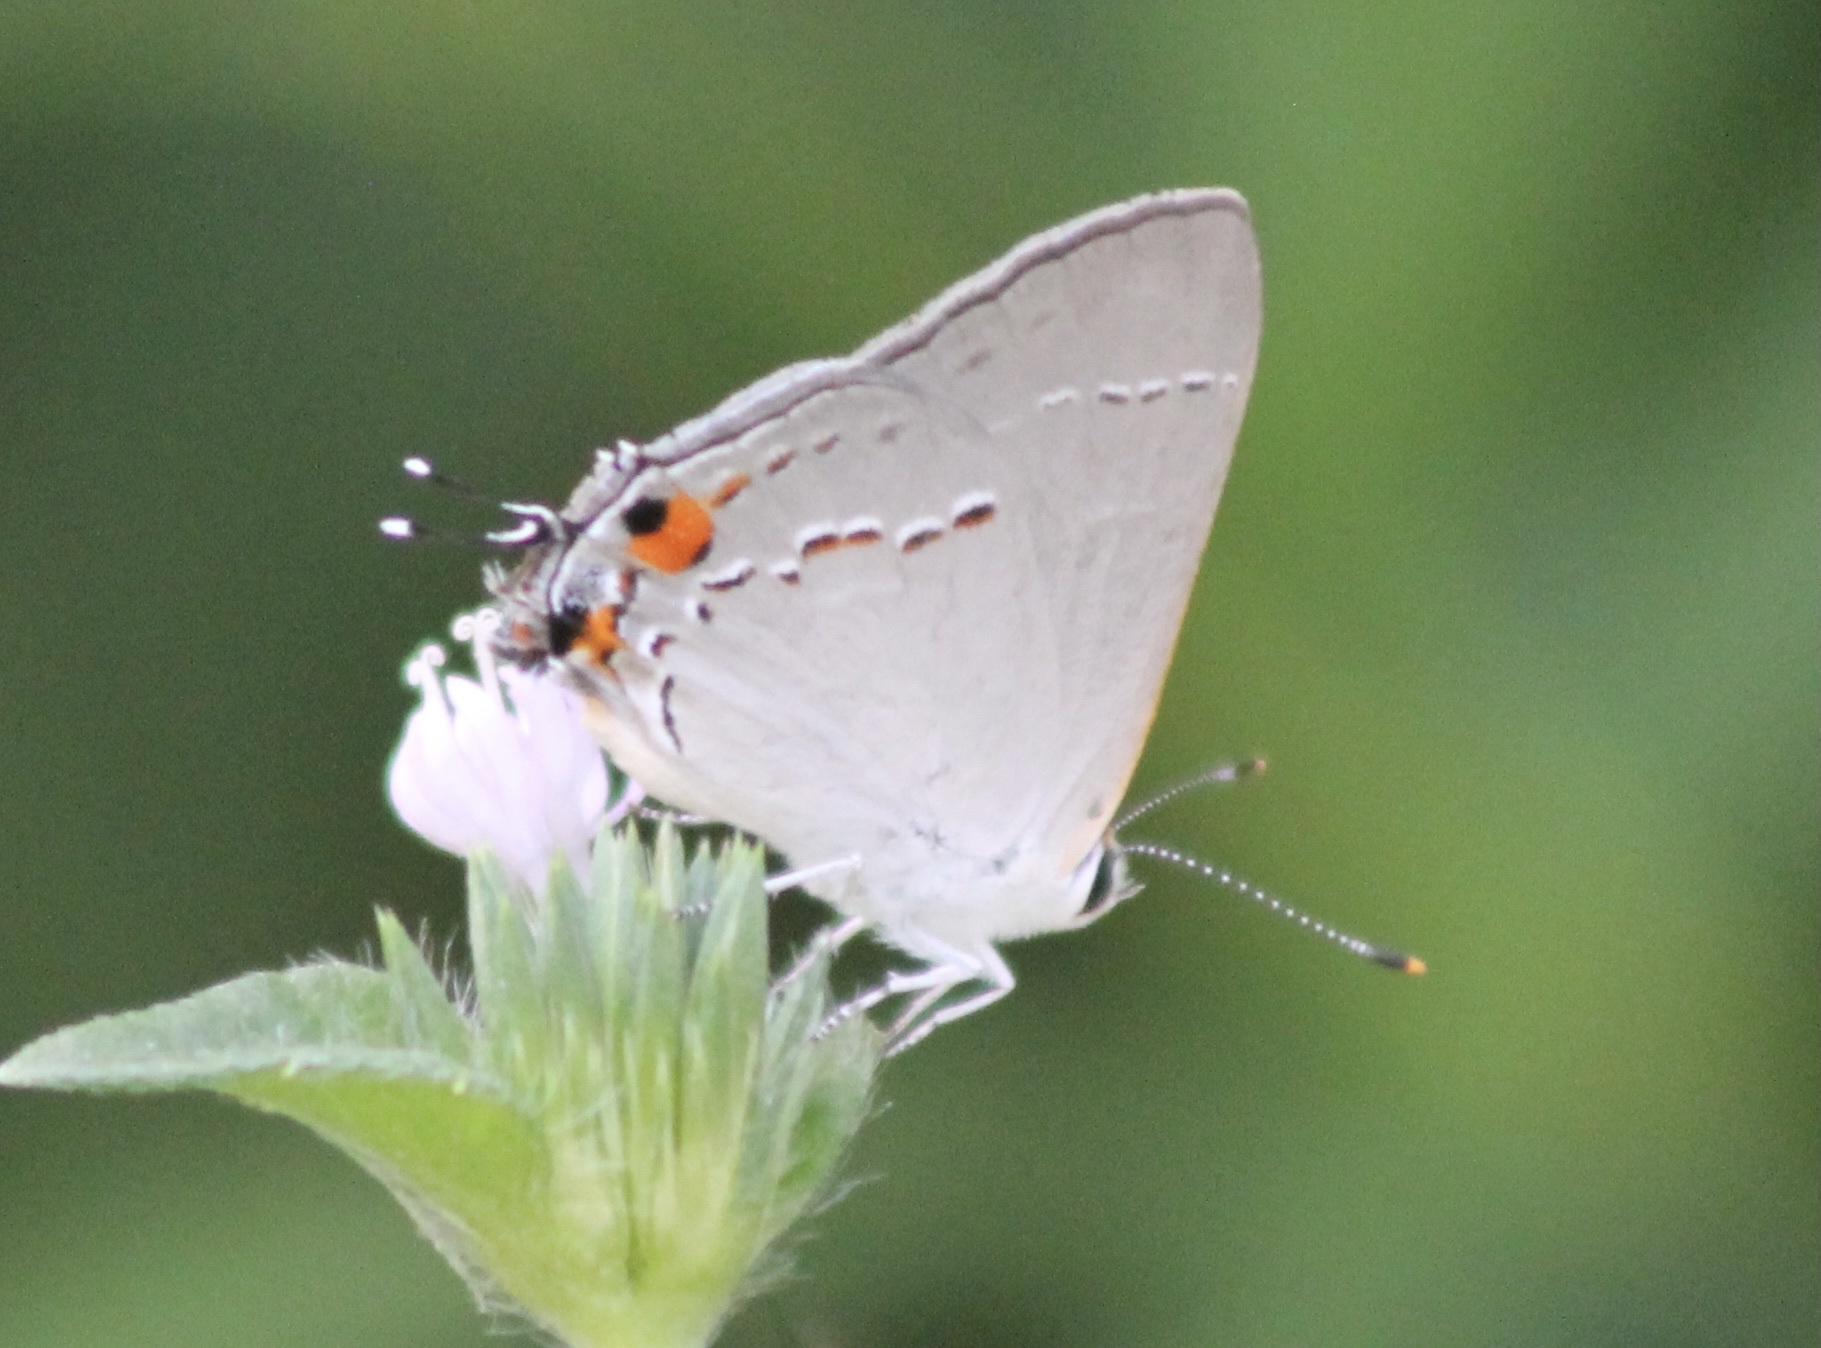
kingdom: Animalia
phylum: Arthropoda
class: Insecta
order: Lepidoptera
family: Lycaenidae
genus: Strymon
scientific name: Strymon melinus
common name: Gray hairstreak
